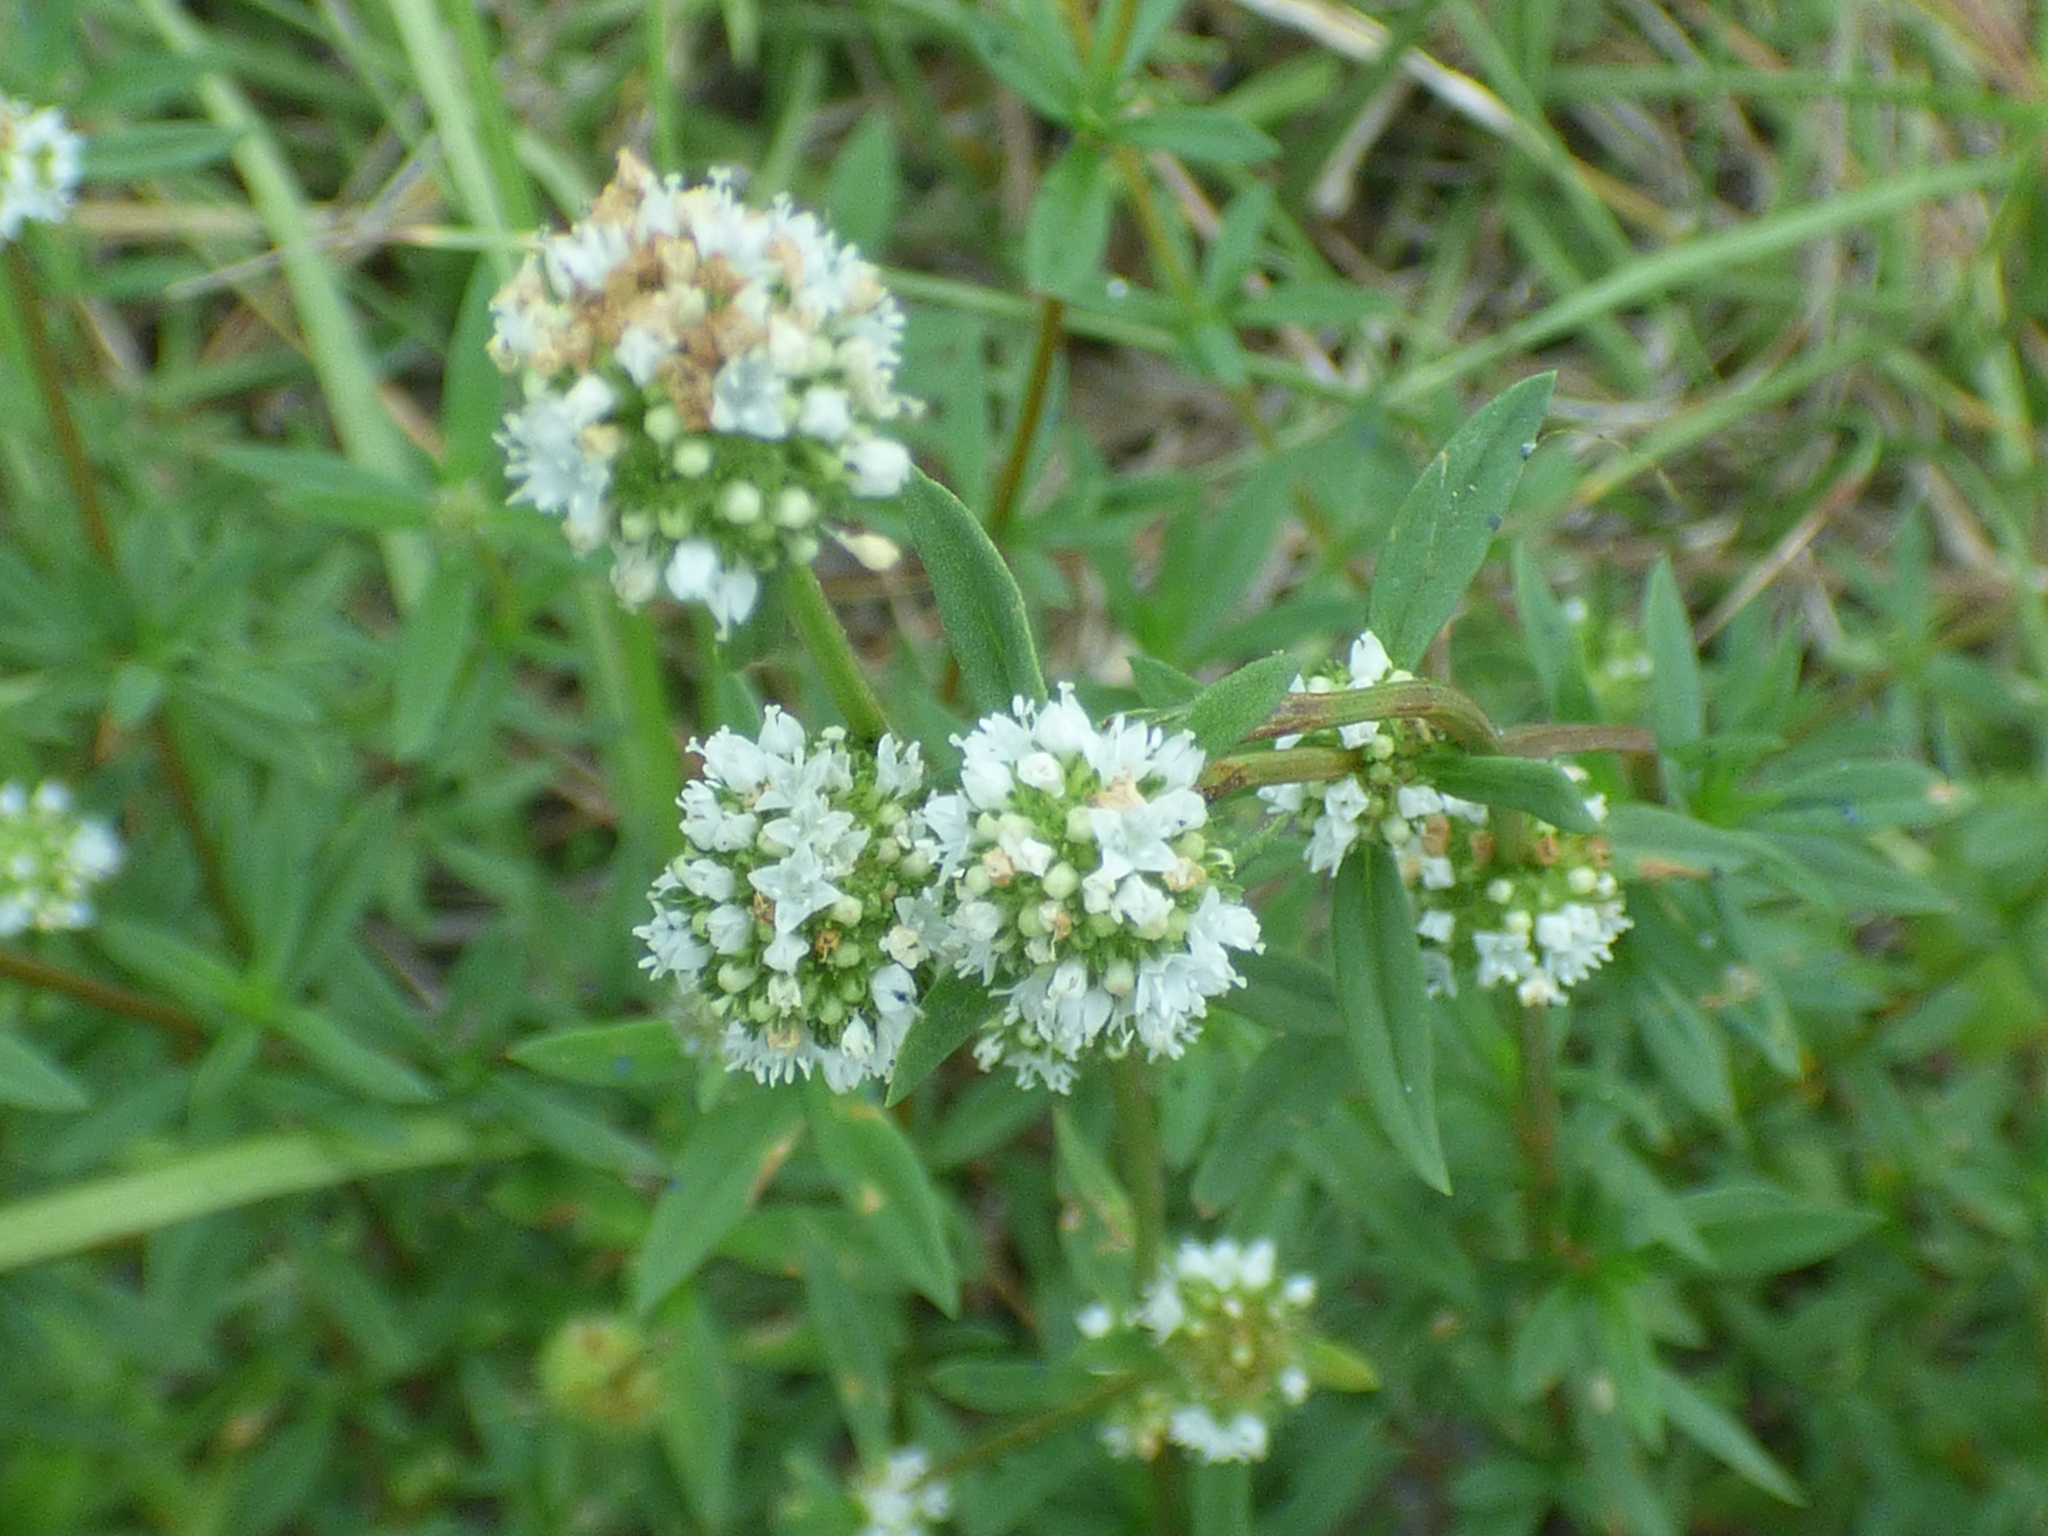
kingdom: Plantae
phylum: Tracheophyta
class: Magnoliopsida
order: Gentianales
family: Rubiaceae
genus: Spermacoce
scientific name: Spermacoce verticillata
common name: Shrubby false buttonweed
